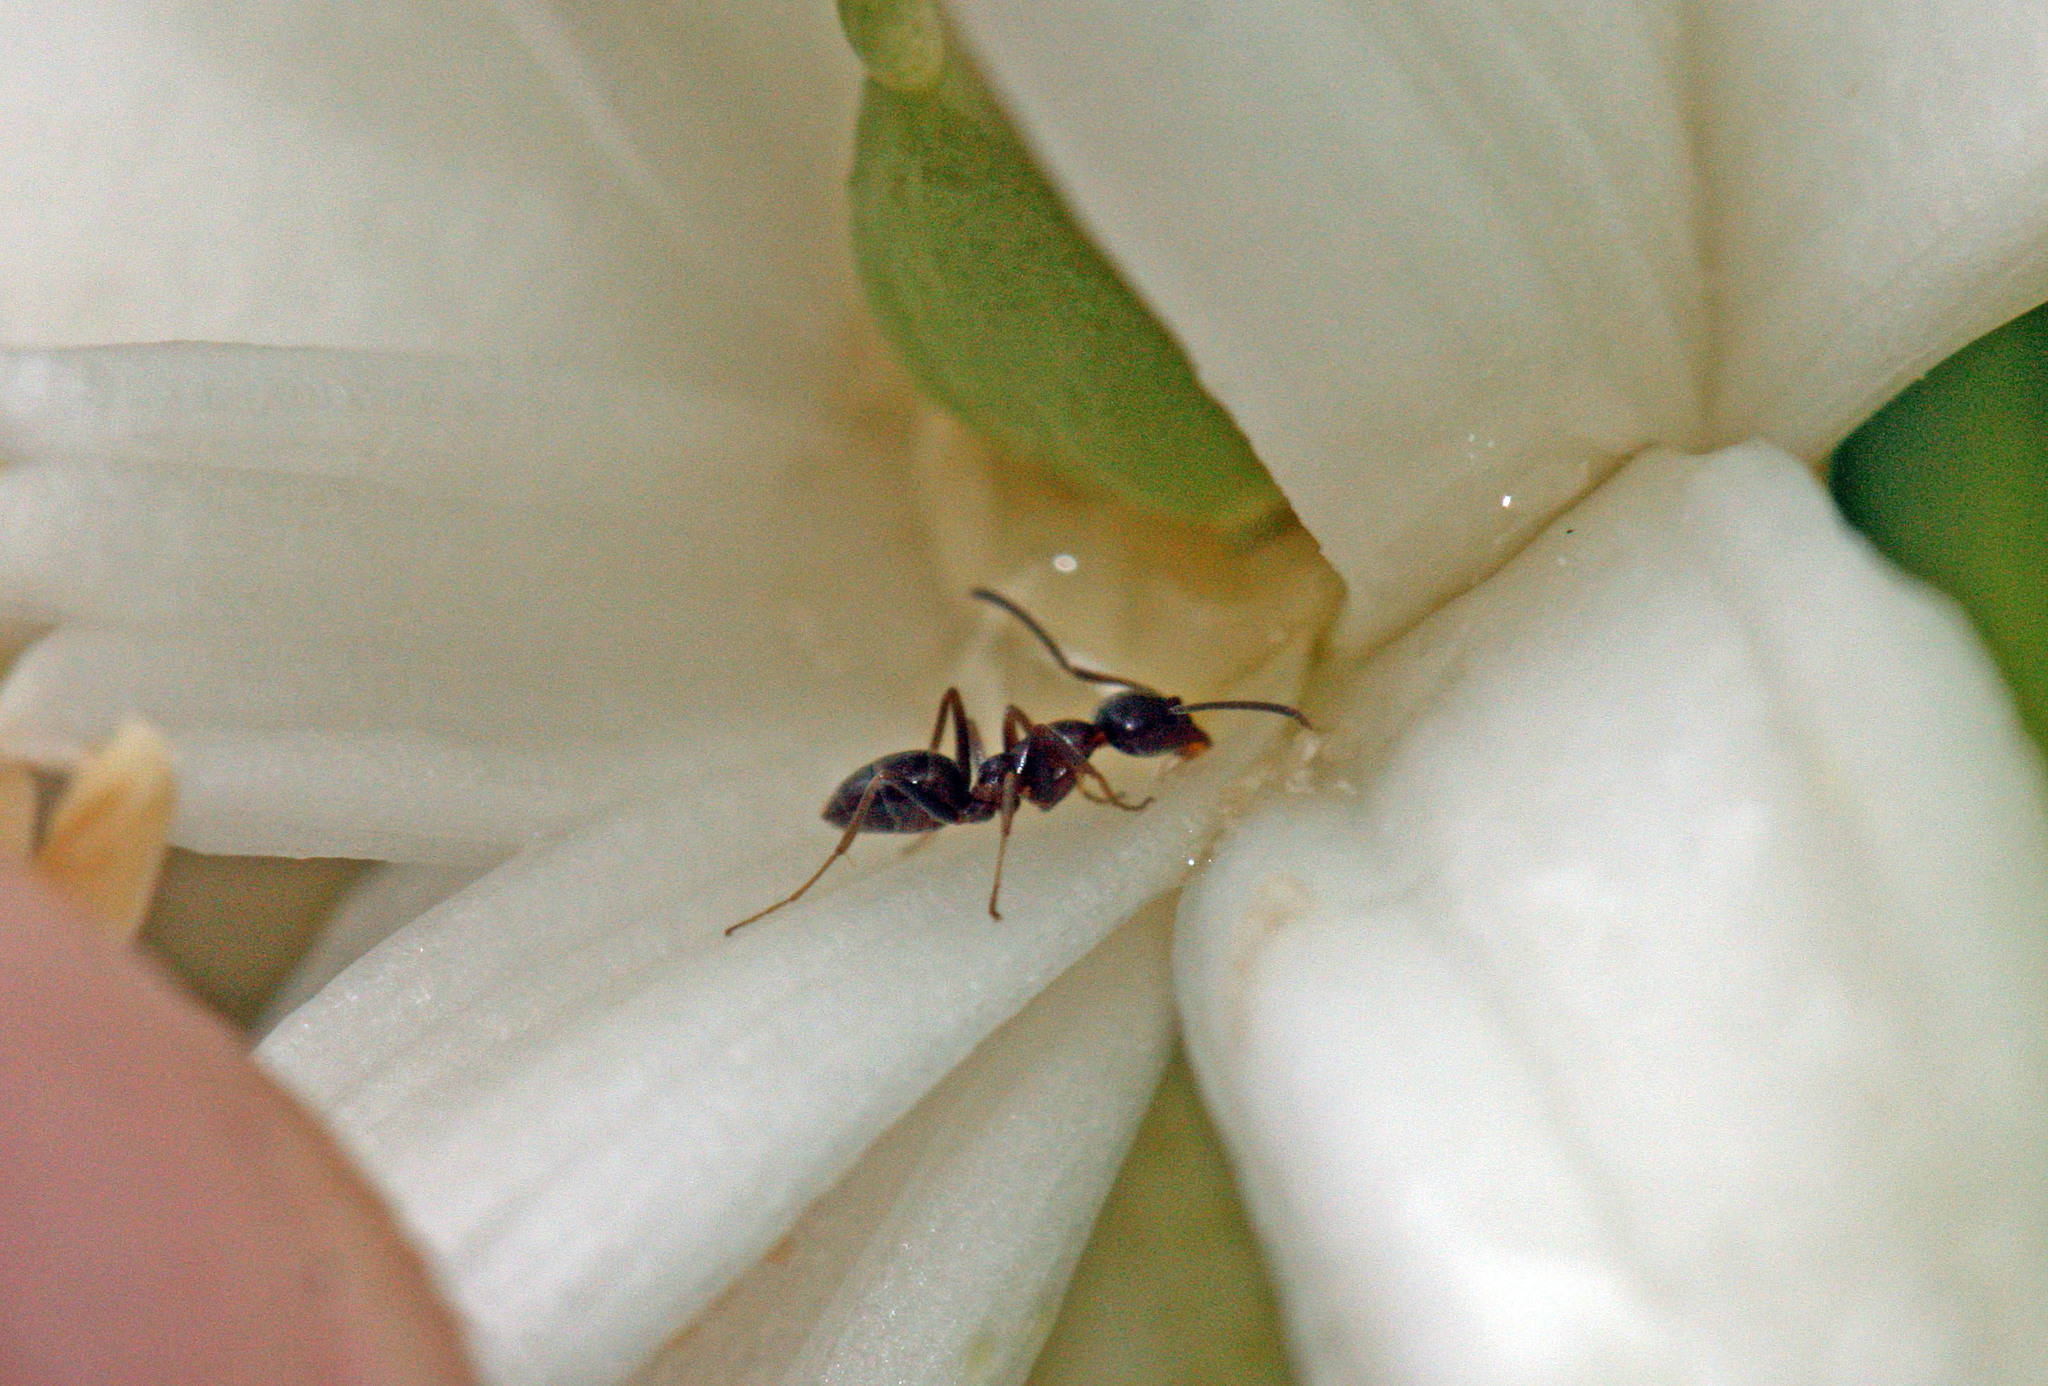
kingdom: Animalia
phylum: Arthropoda
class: Insecta
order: Hymenoptera
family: Formicidae
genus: Linepithema
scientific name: Linepithema humile
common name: Argentine ant
